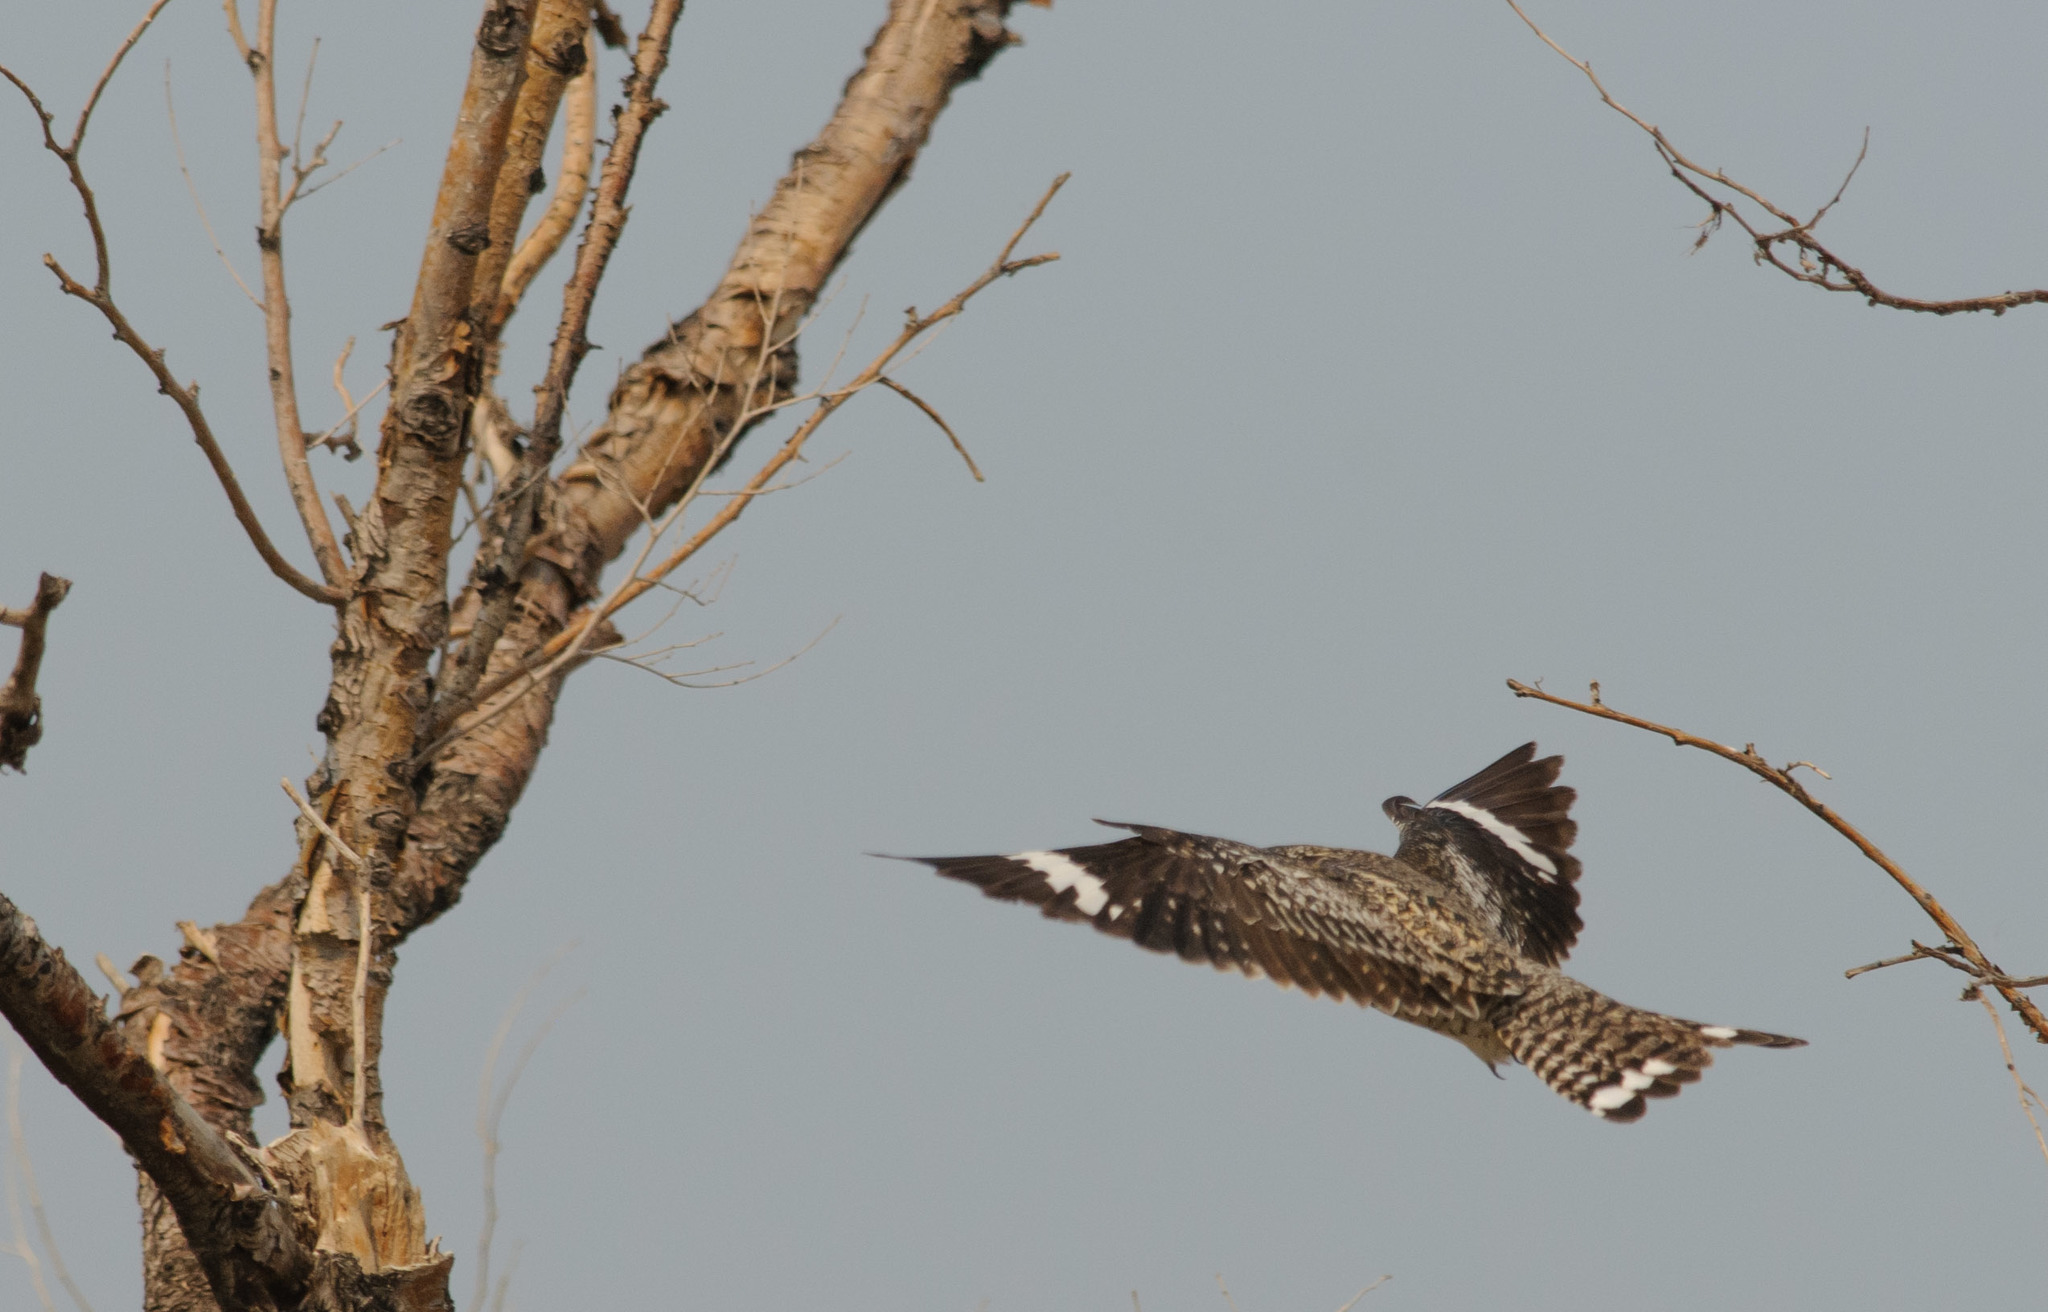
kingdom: Animalia
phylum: Chordata
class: Aves
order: Caprimulgiformes
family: Caprimulgidae
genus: Chordeiles
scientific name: Chordeiles minor
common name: Common nighthawk
